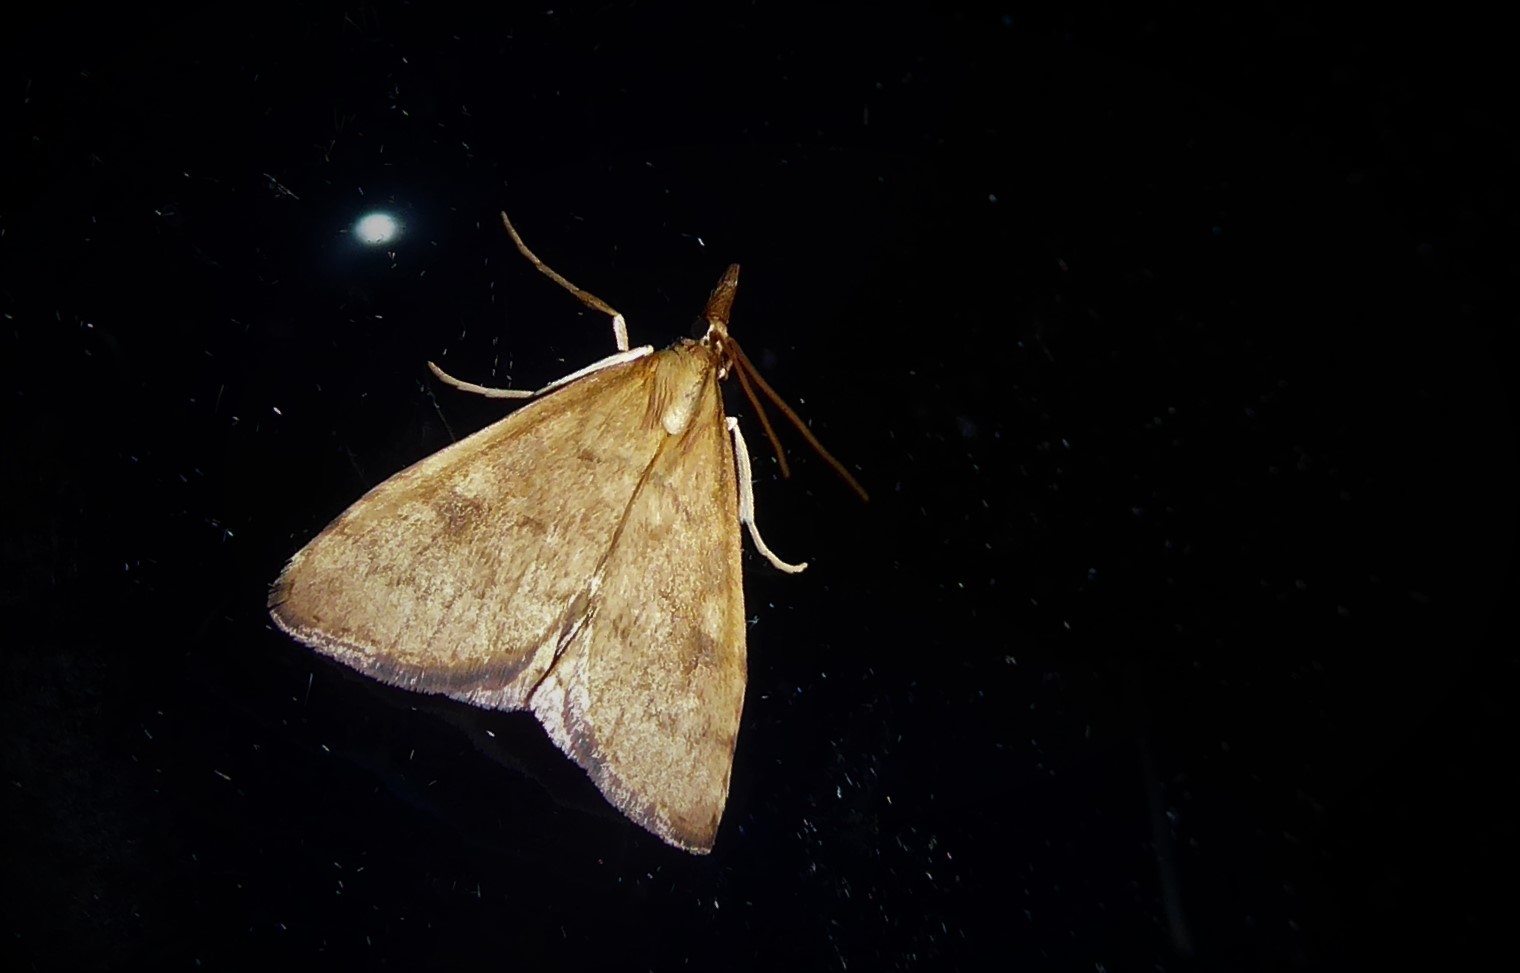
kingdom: Animalia
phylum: Arthropoda
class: Insecta
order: Lepidoptera
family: Crambidae
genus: Udea
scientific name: Udea Mnesictena flavidalis
